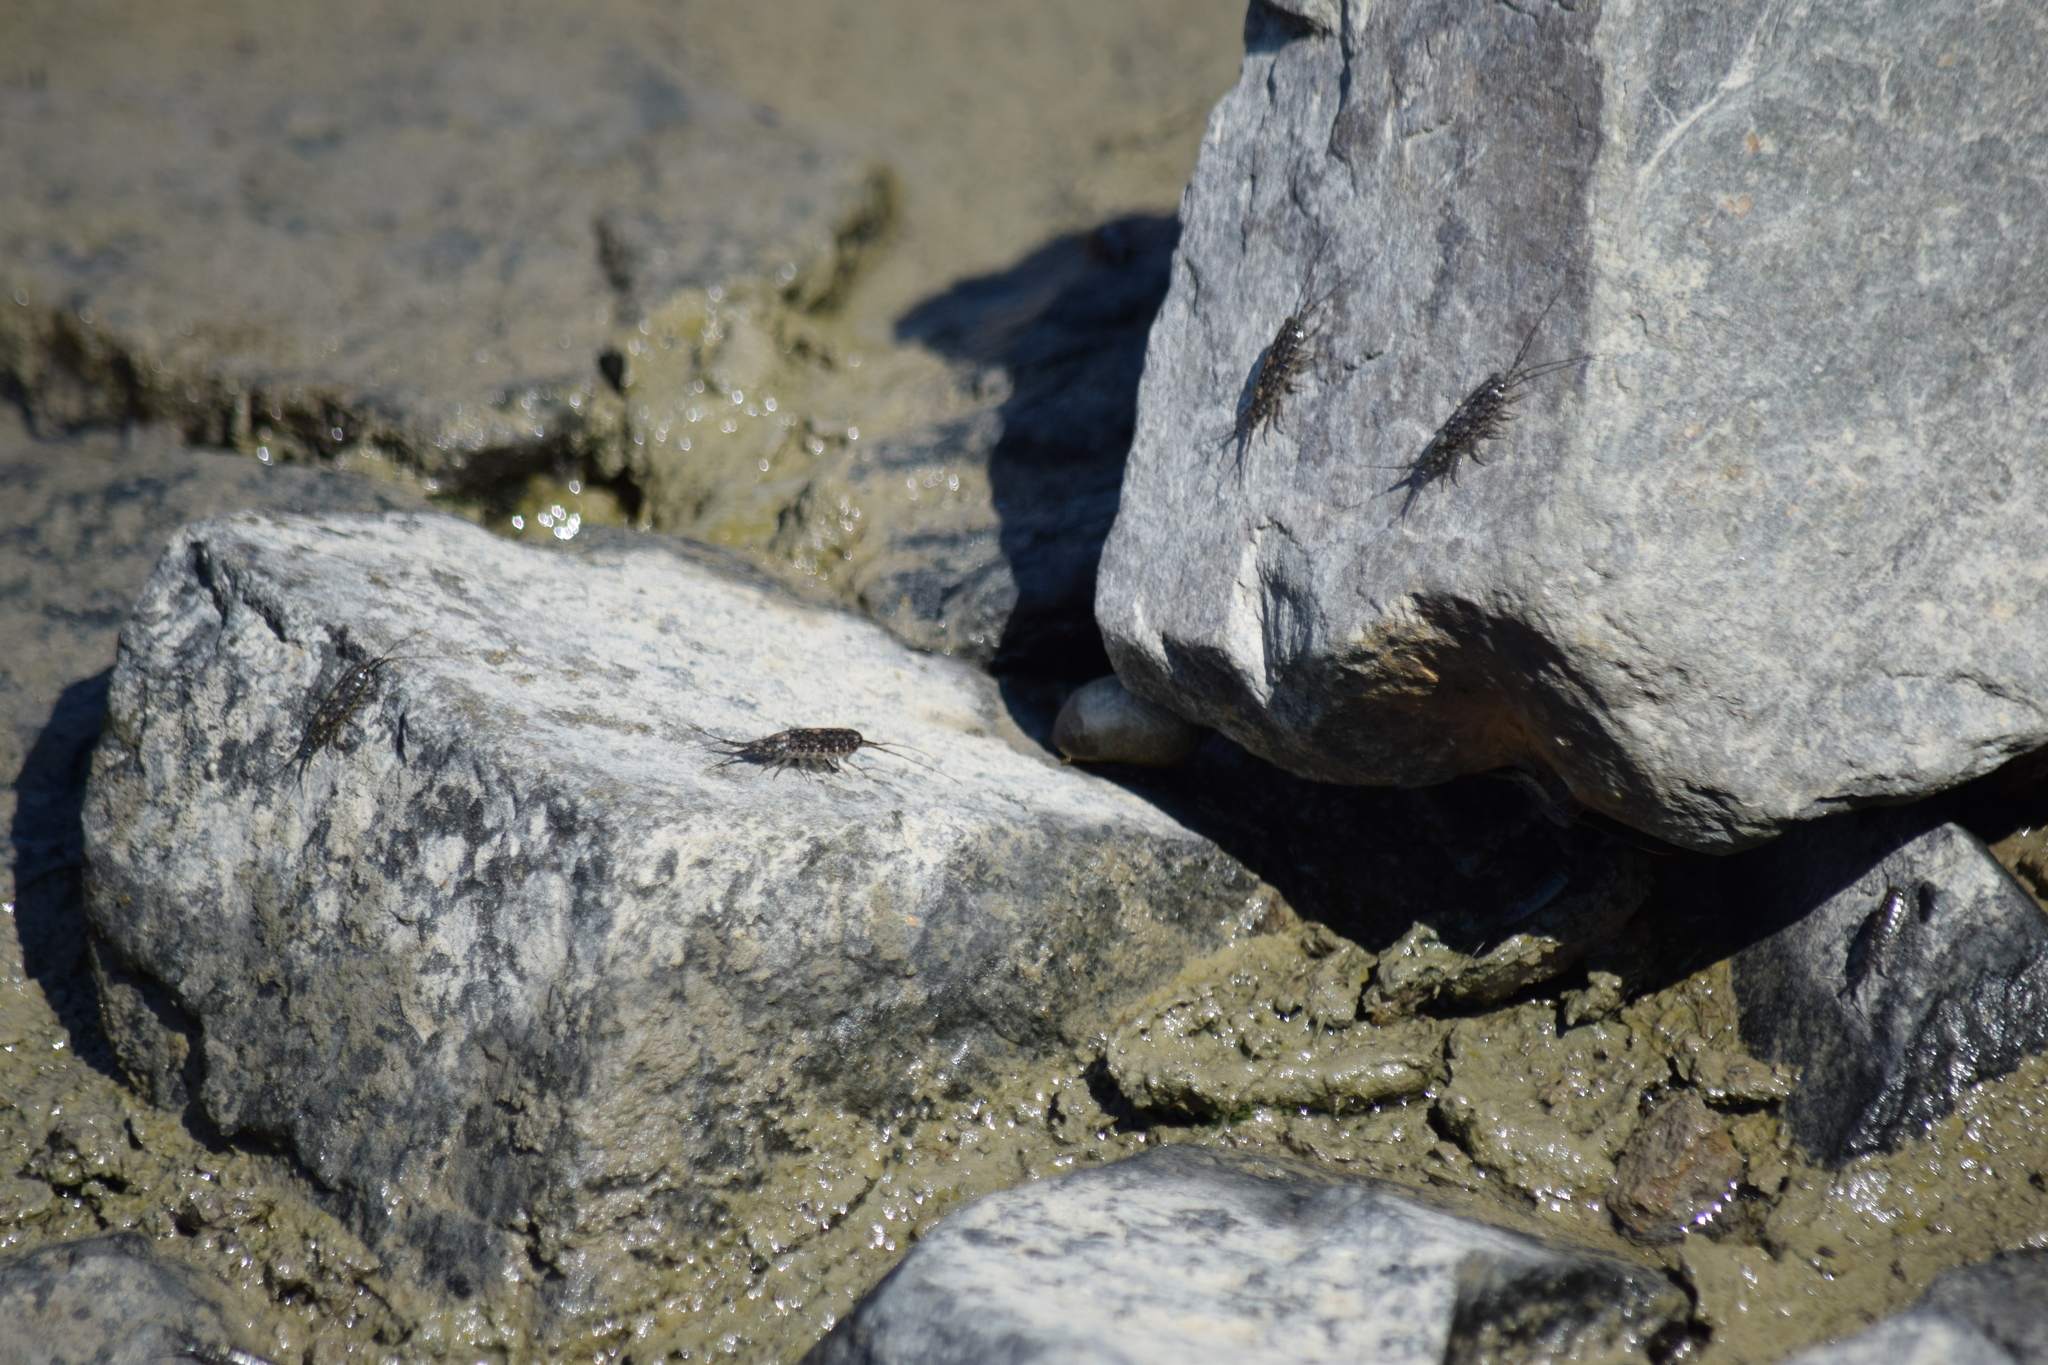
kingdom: Animalia
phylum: Arthropoda
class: Malacostraca
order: Isopoda
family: Ligiidae
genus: Ligia
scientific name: Ligia exotica
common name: Wharf roach
